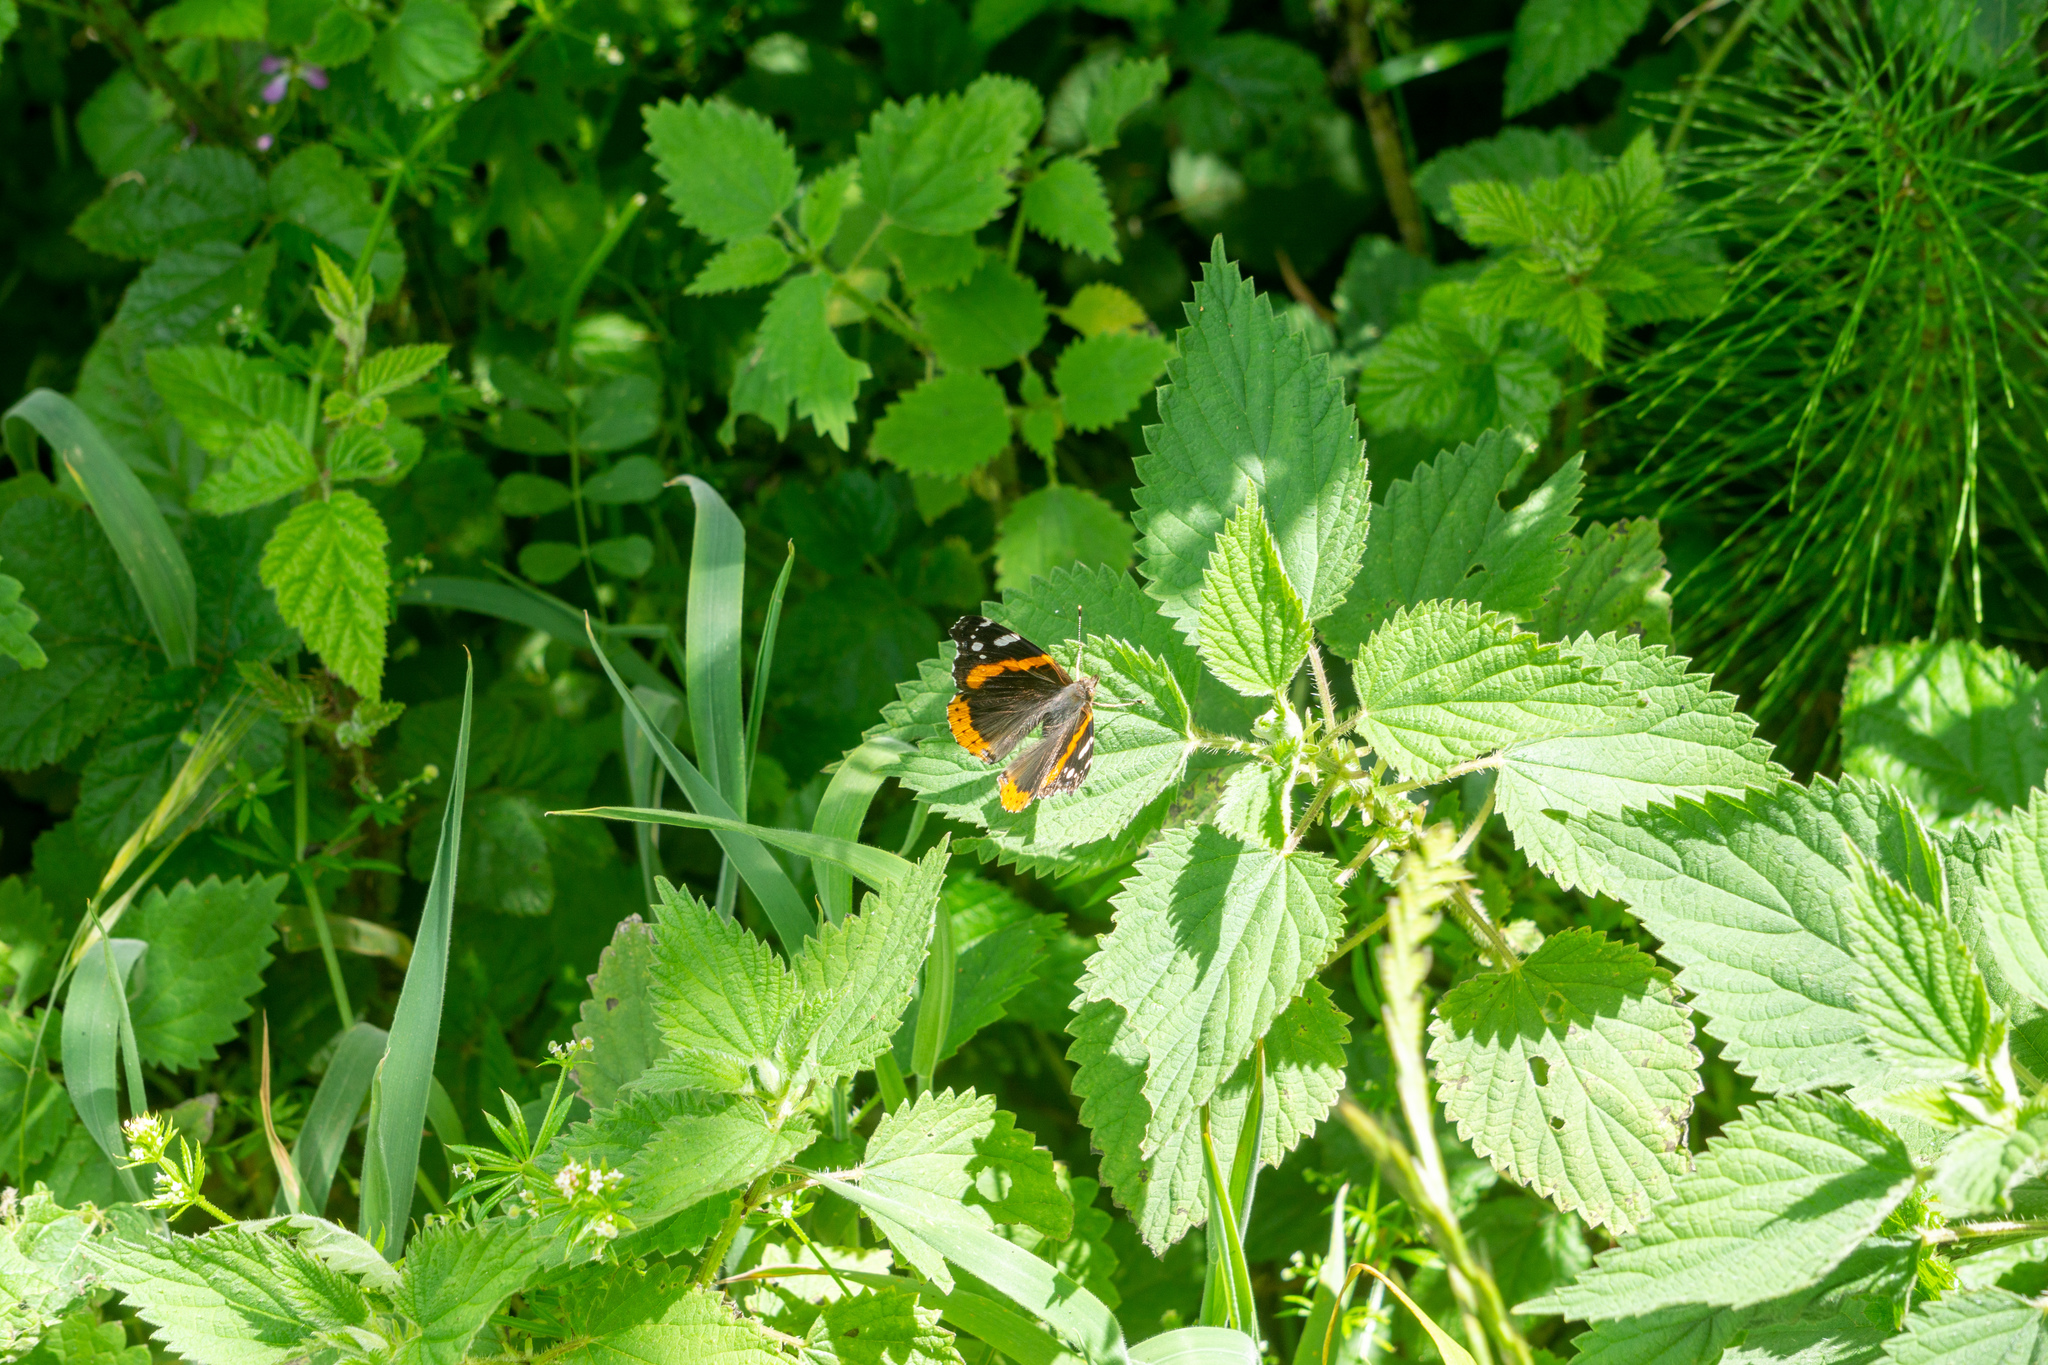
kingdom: Animalia
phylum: Arthropoda
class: Insecta
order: Lepidoptera
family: Nymphalidae
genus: Vanessa
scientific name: Vanessa atalanta
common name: Red admiral
